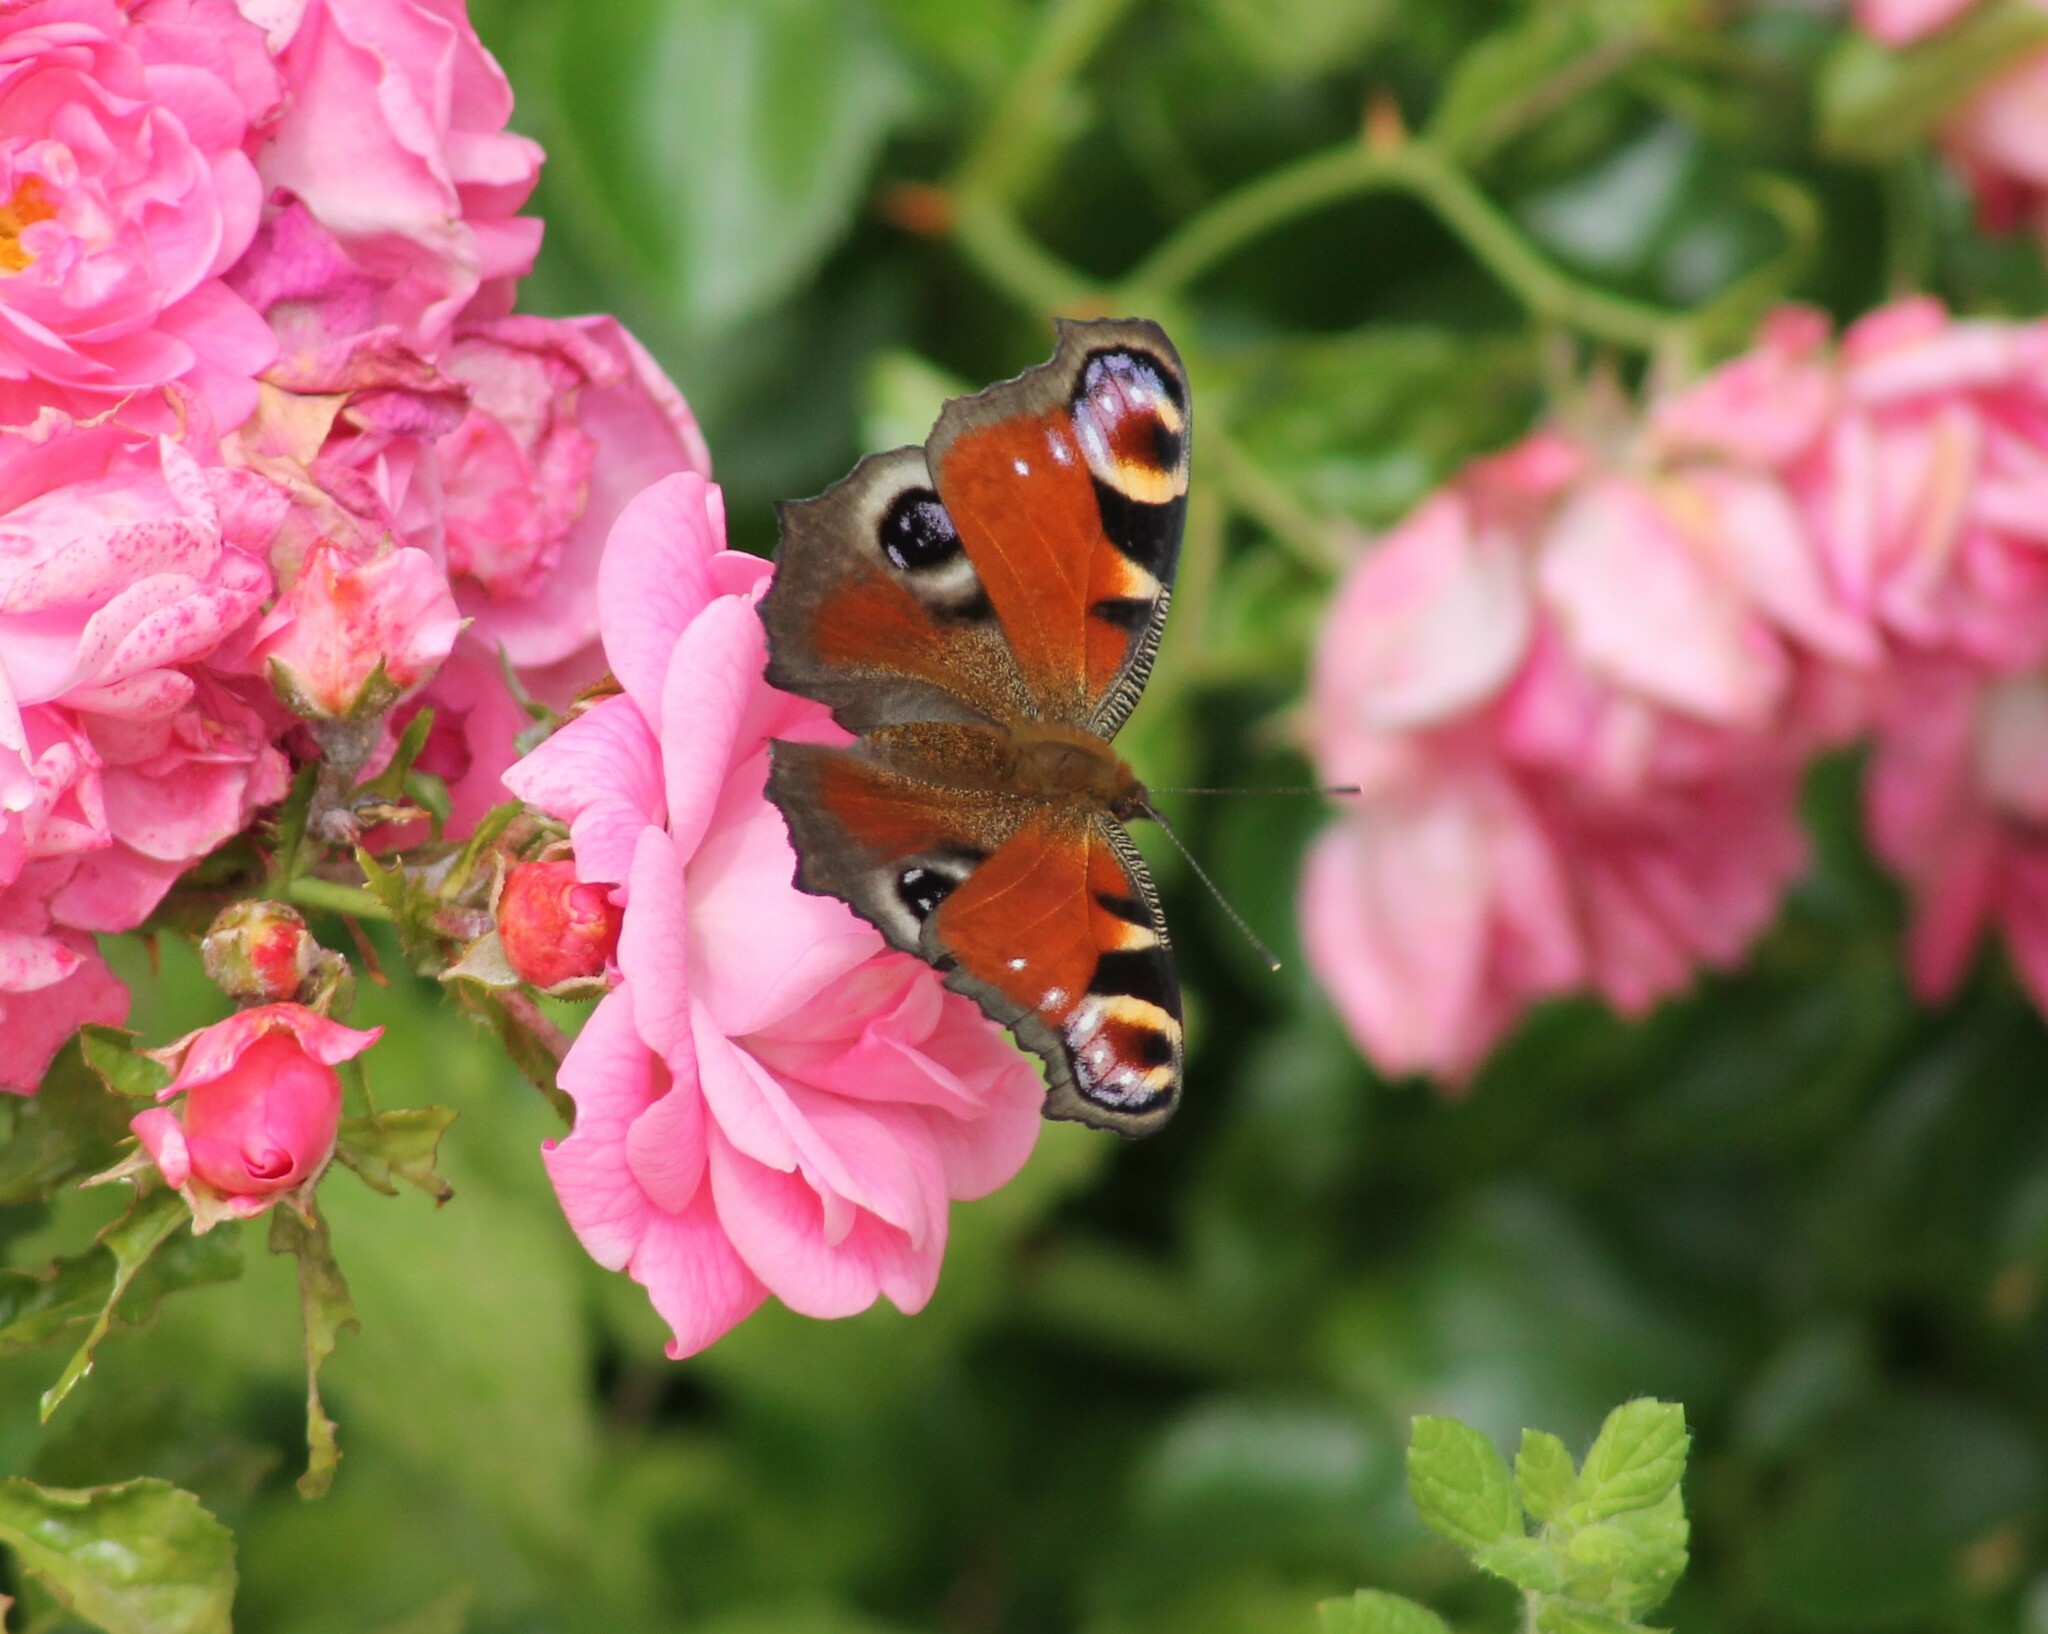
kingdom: Animalia
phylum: Arthropoda
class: Insecta
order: Lepidoptera
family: Nymphalidae
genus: Aglais
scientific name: Aglais io
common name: Peacock
